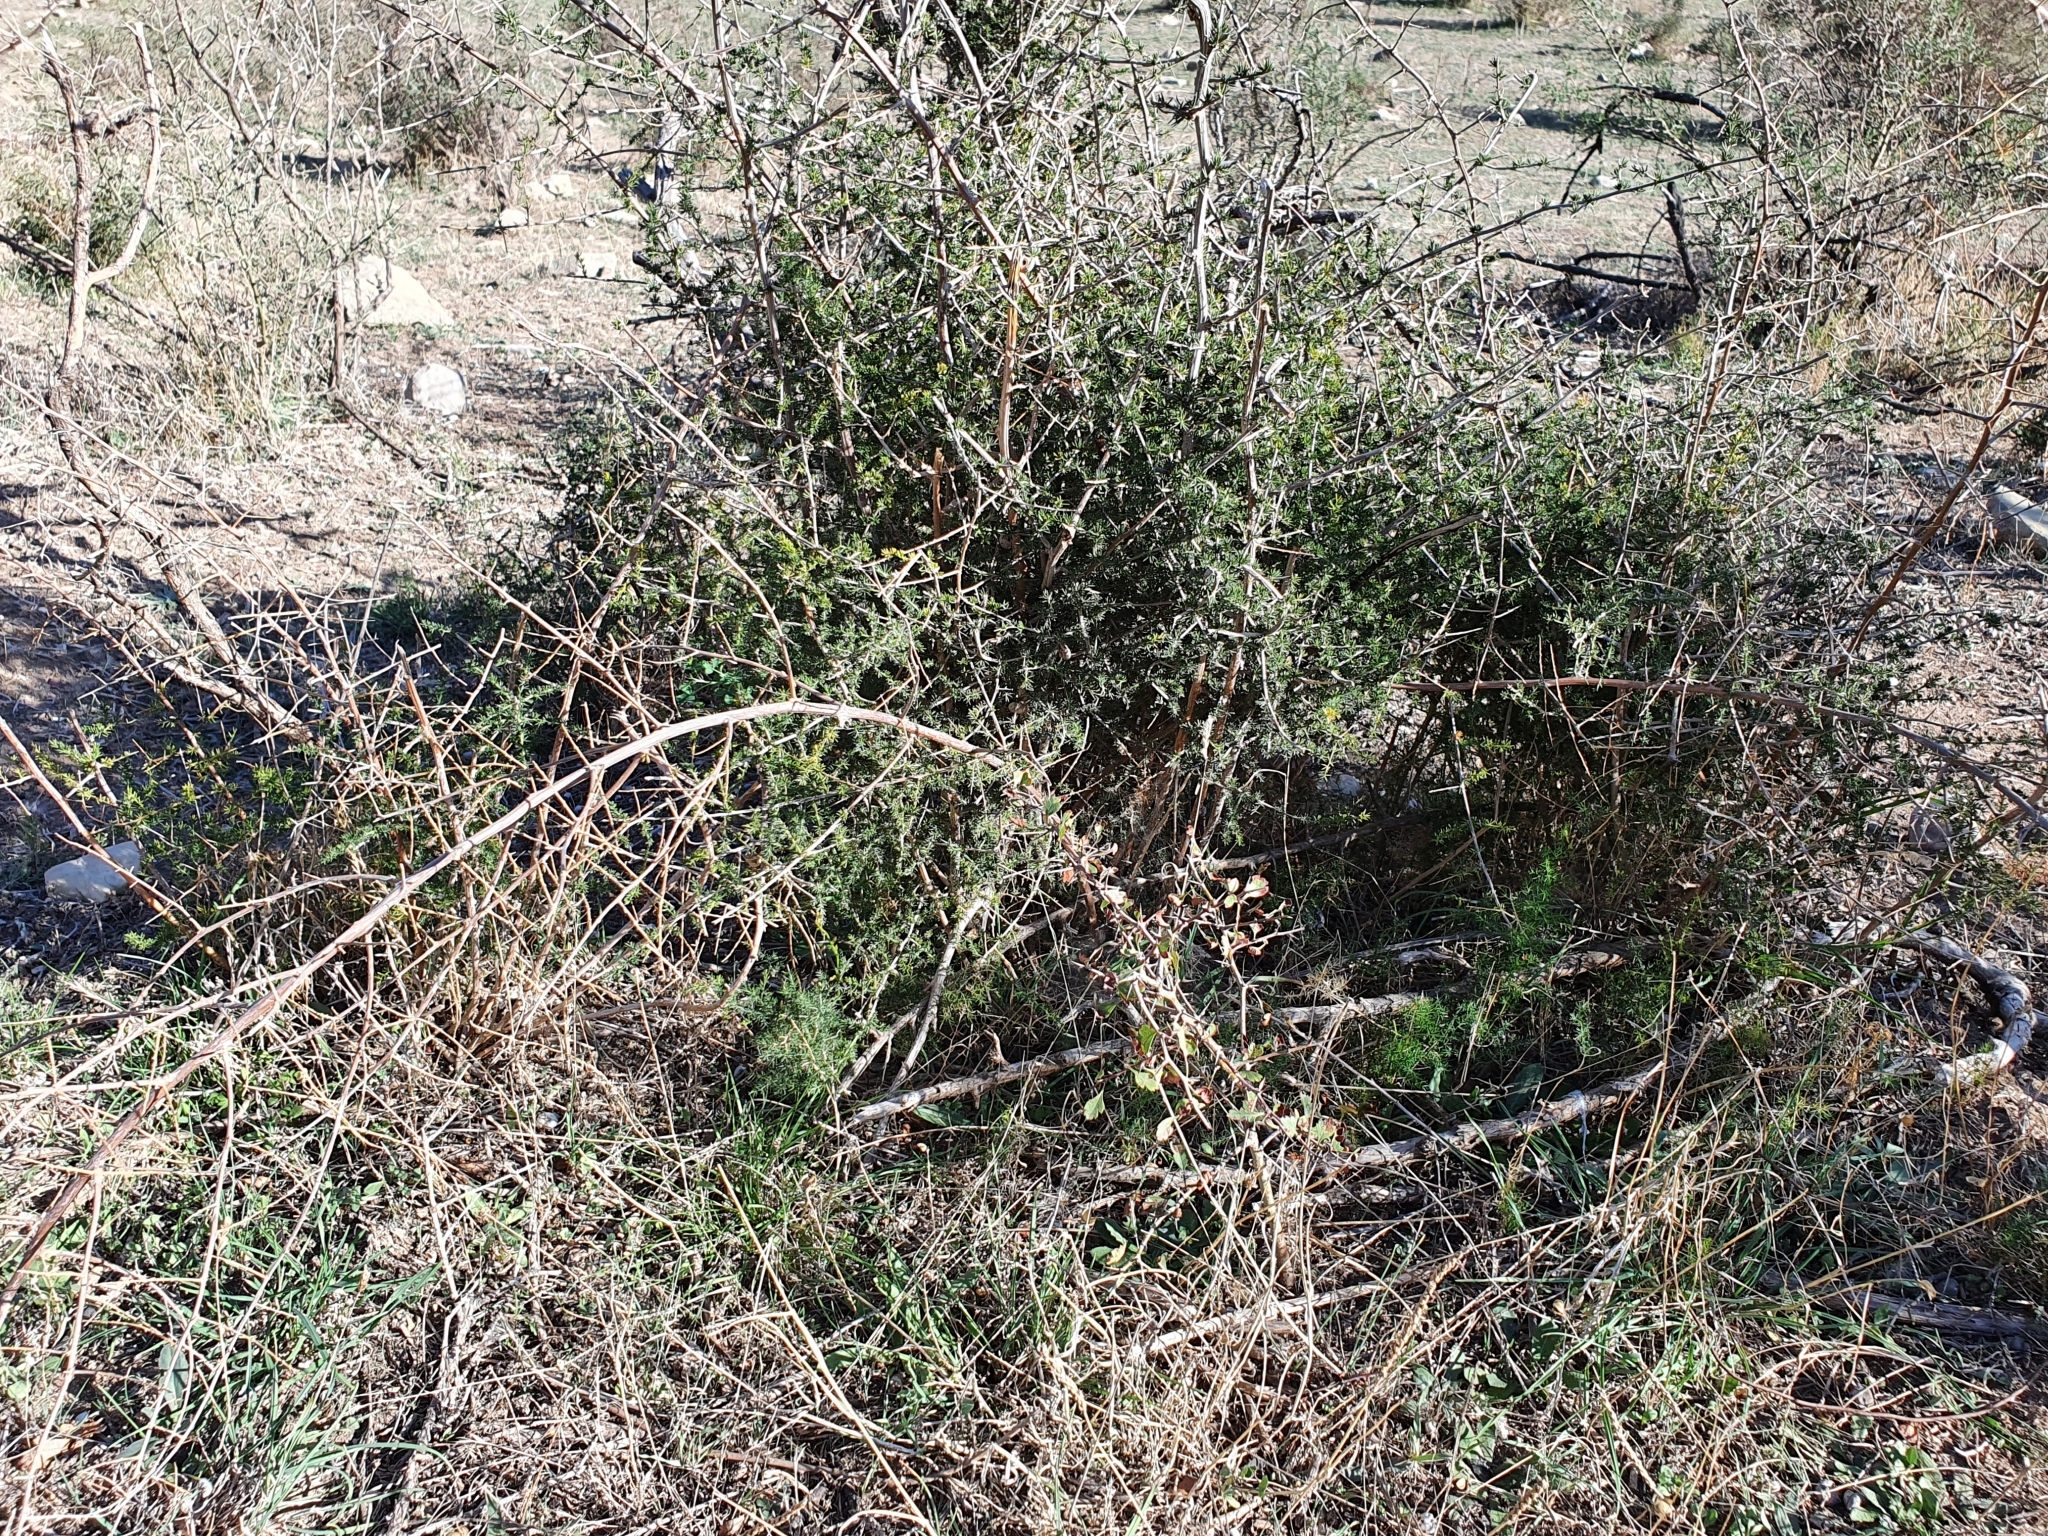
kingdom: Plantae
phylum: Tracheophyta
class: Liliopsida
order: Asparagales
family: Asparagaceae
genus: Asparagus
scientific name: Asparagus acutifolius
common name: Wild asparagus
